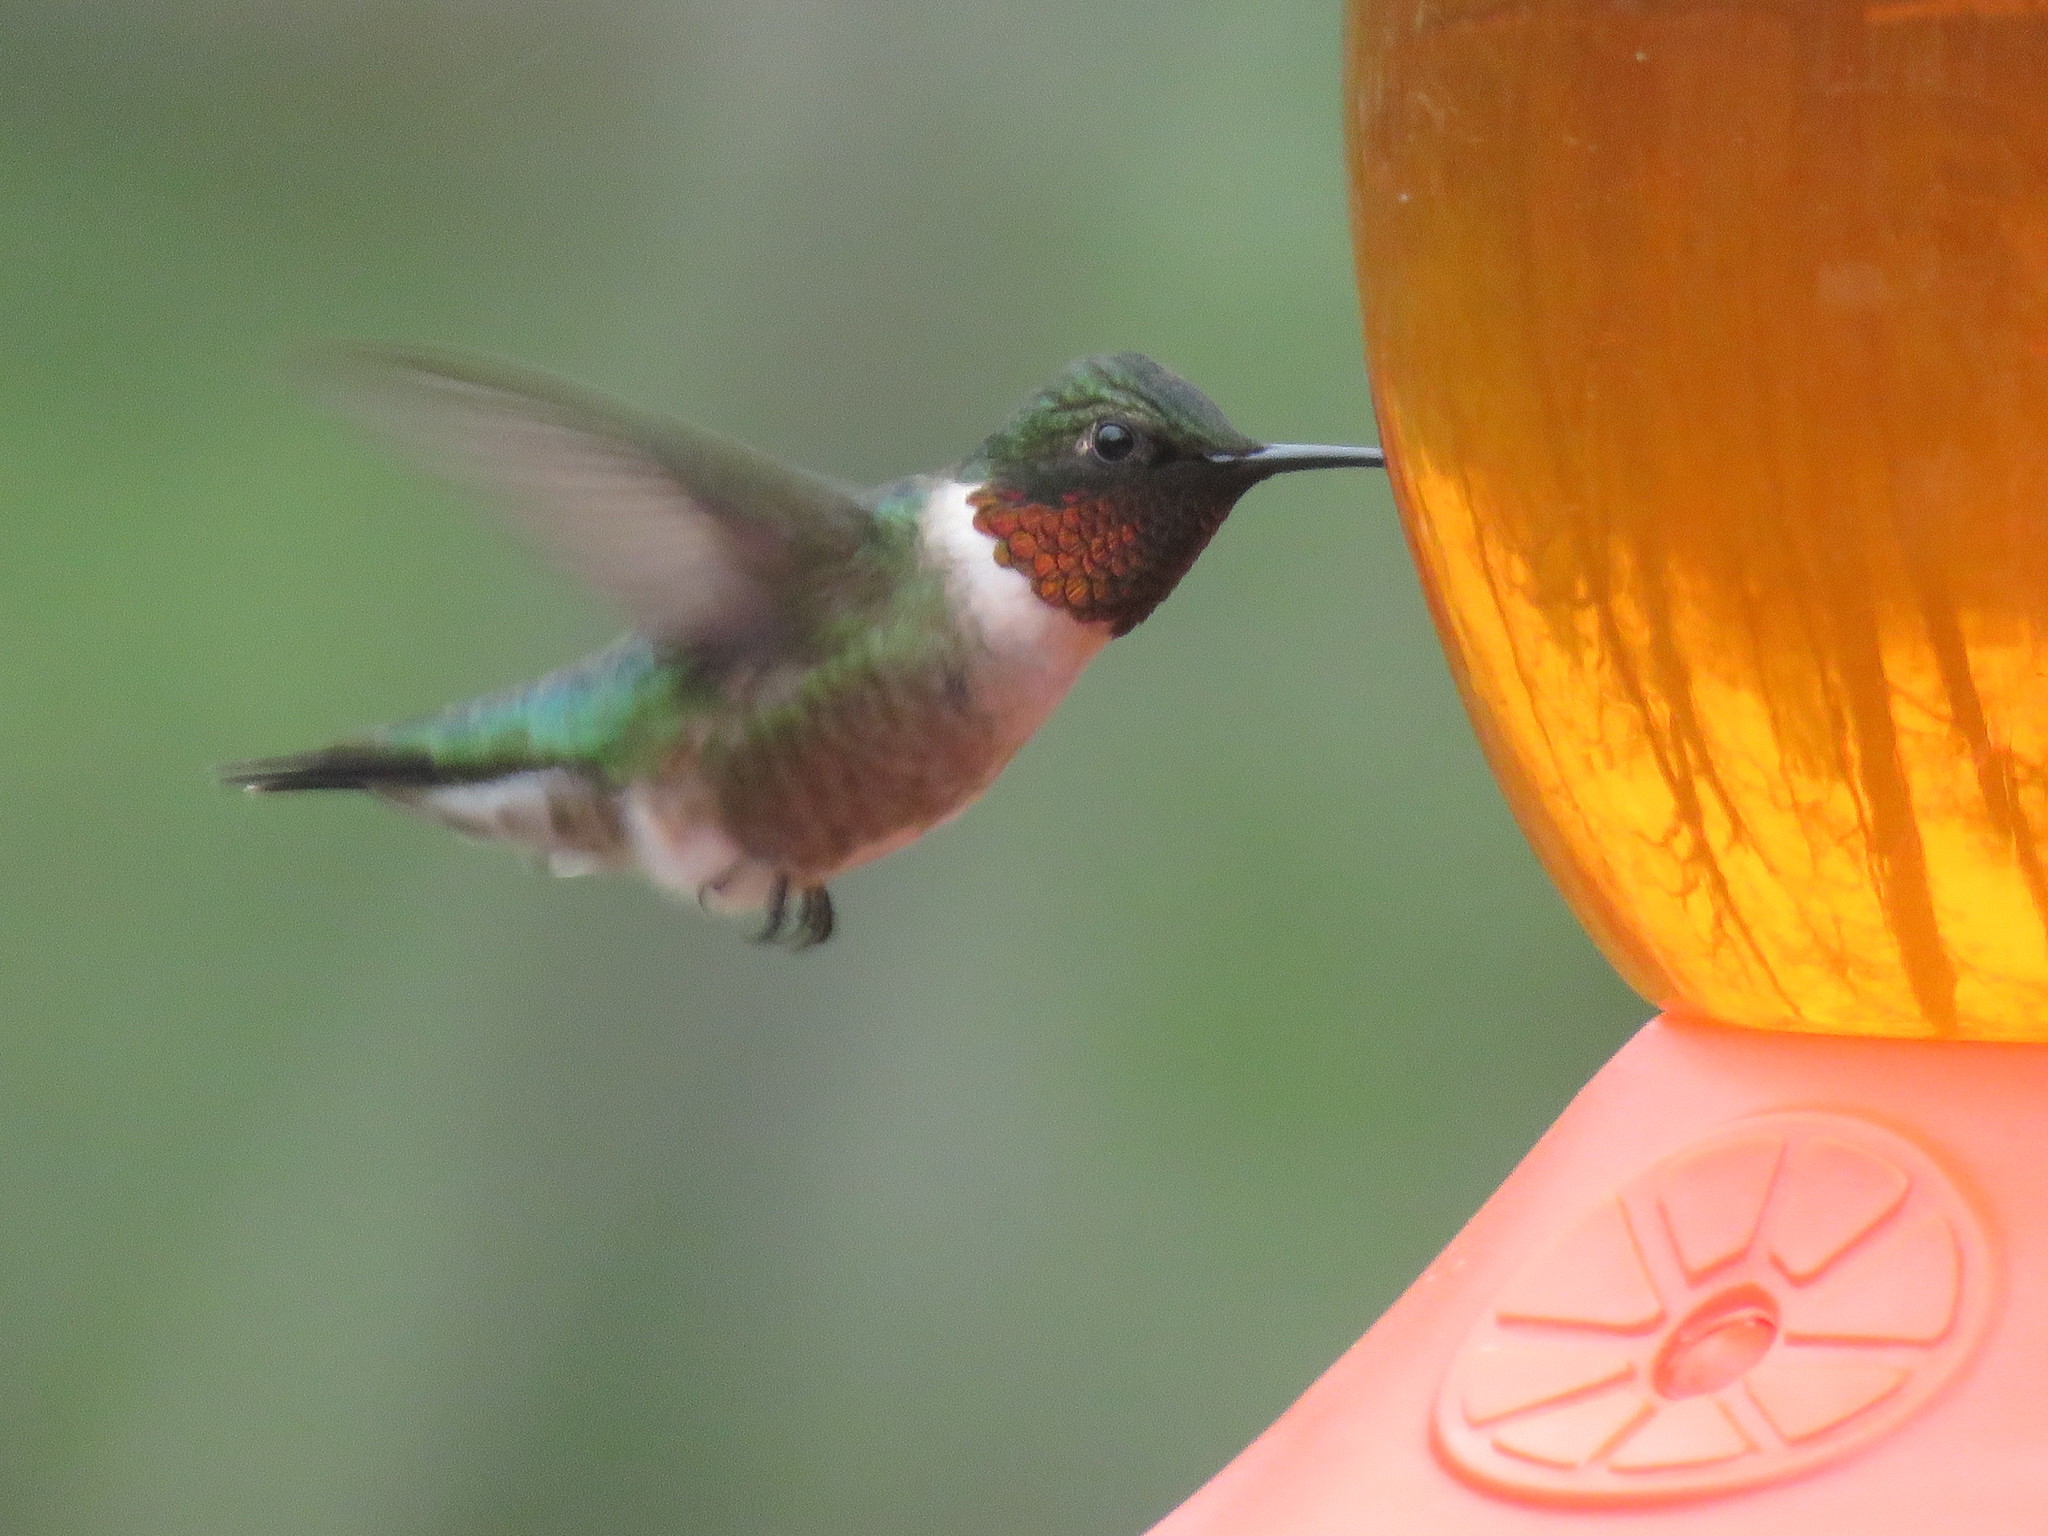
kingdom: Animalia
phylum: Chordata
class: Aves
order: Apodiformes
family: Trochilidae
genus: Archilochus
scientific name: Archilochus colubris
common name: Ruby-throated hummingbird
